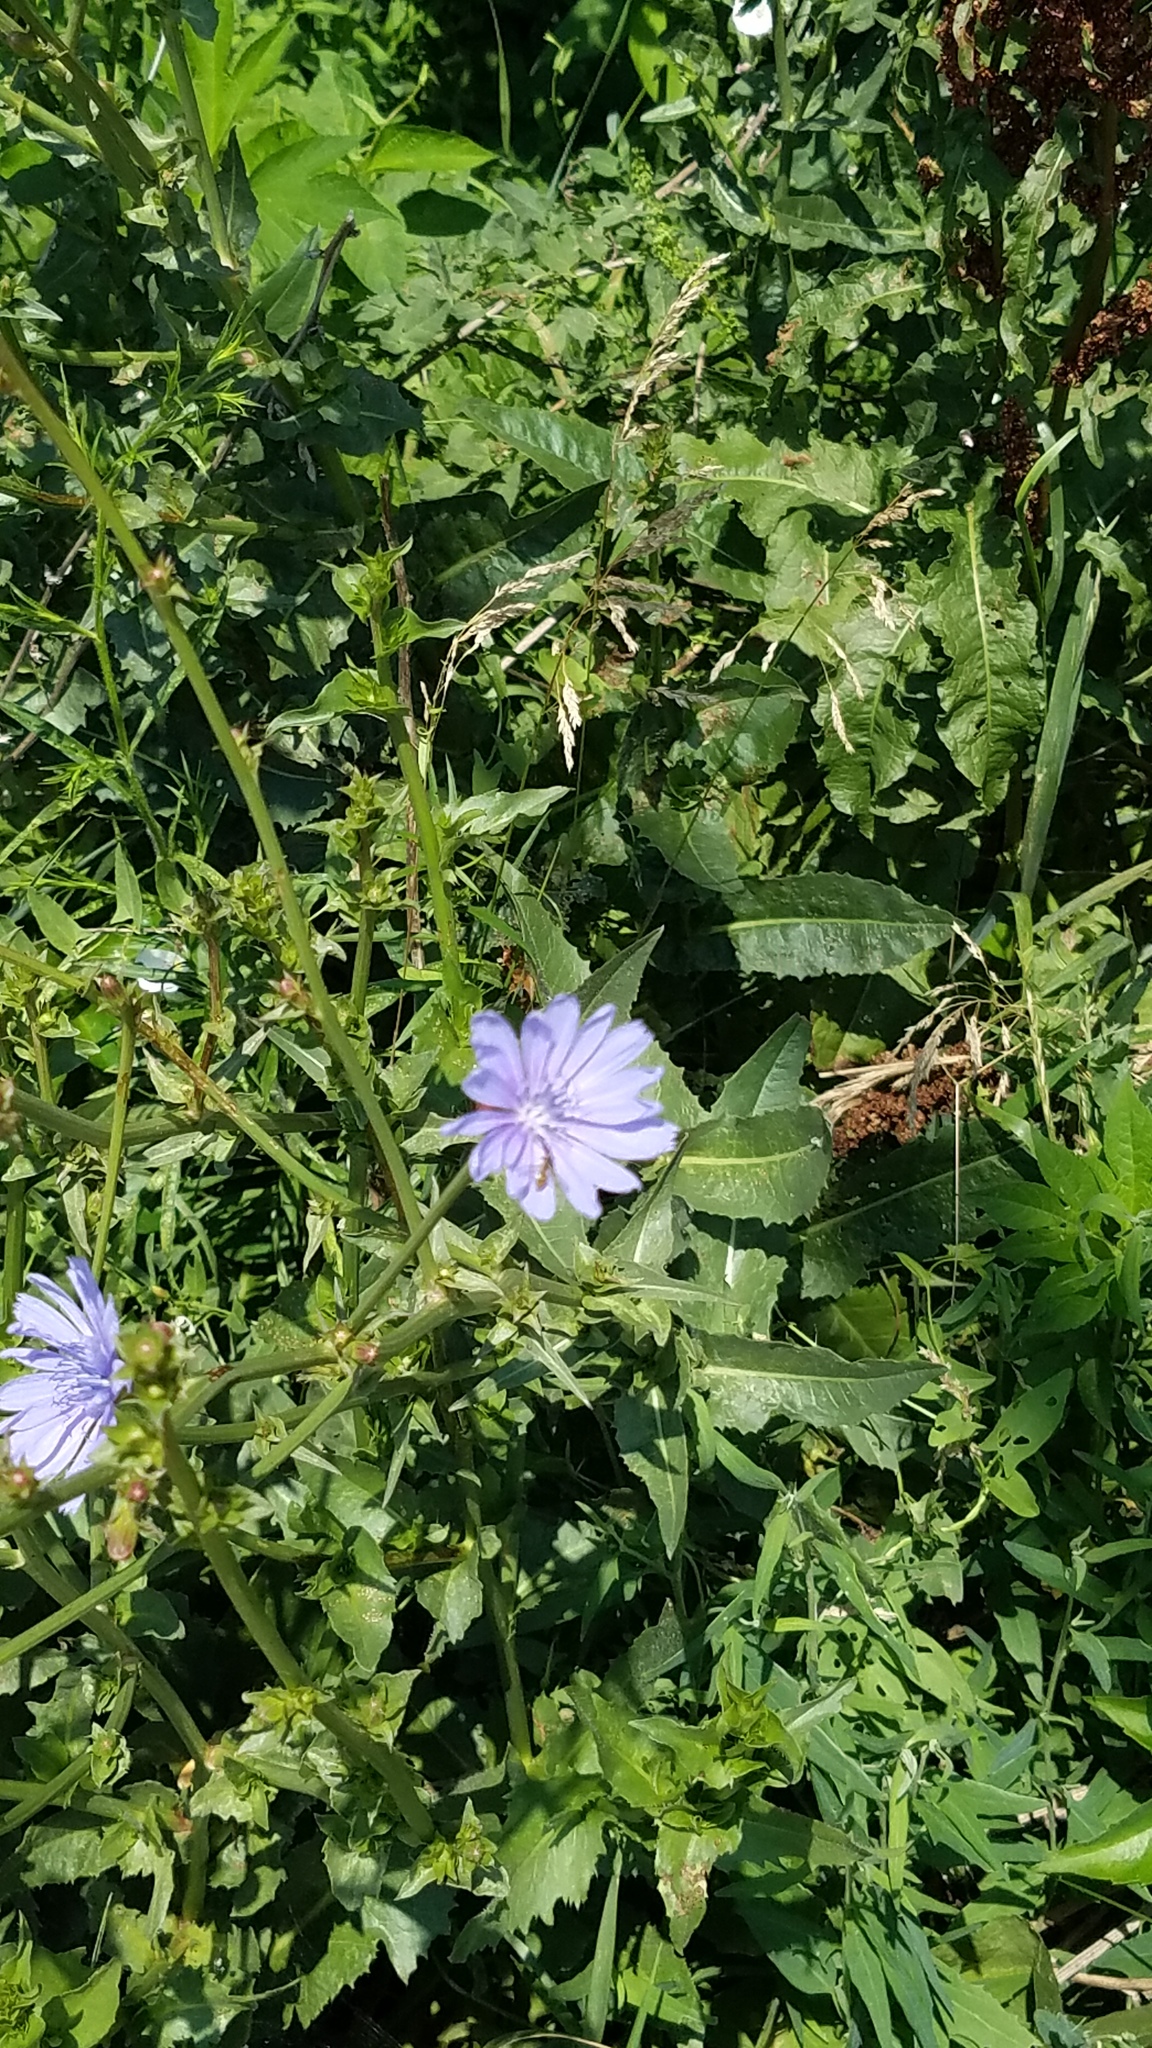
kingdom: Plantae
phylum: Tracheophyta
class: Magnoliopsida
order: Asterales
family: Asteraceae
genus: Cichorium
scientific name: Cichorium intybus
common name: Chicory
